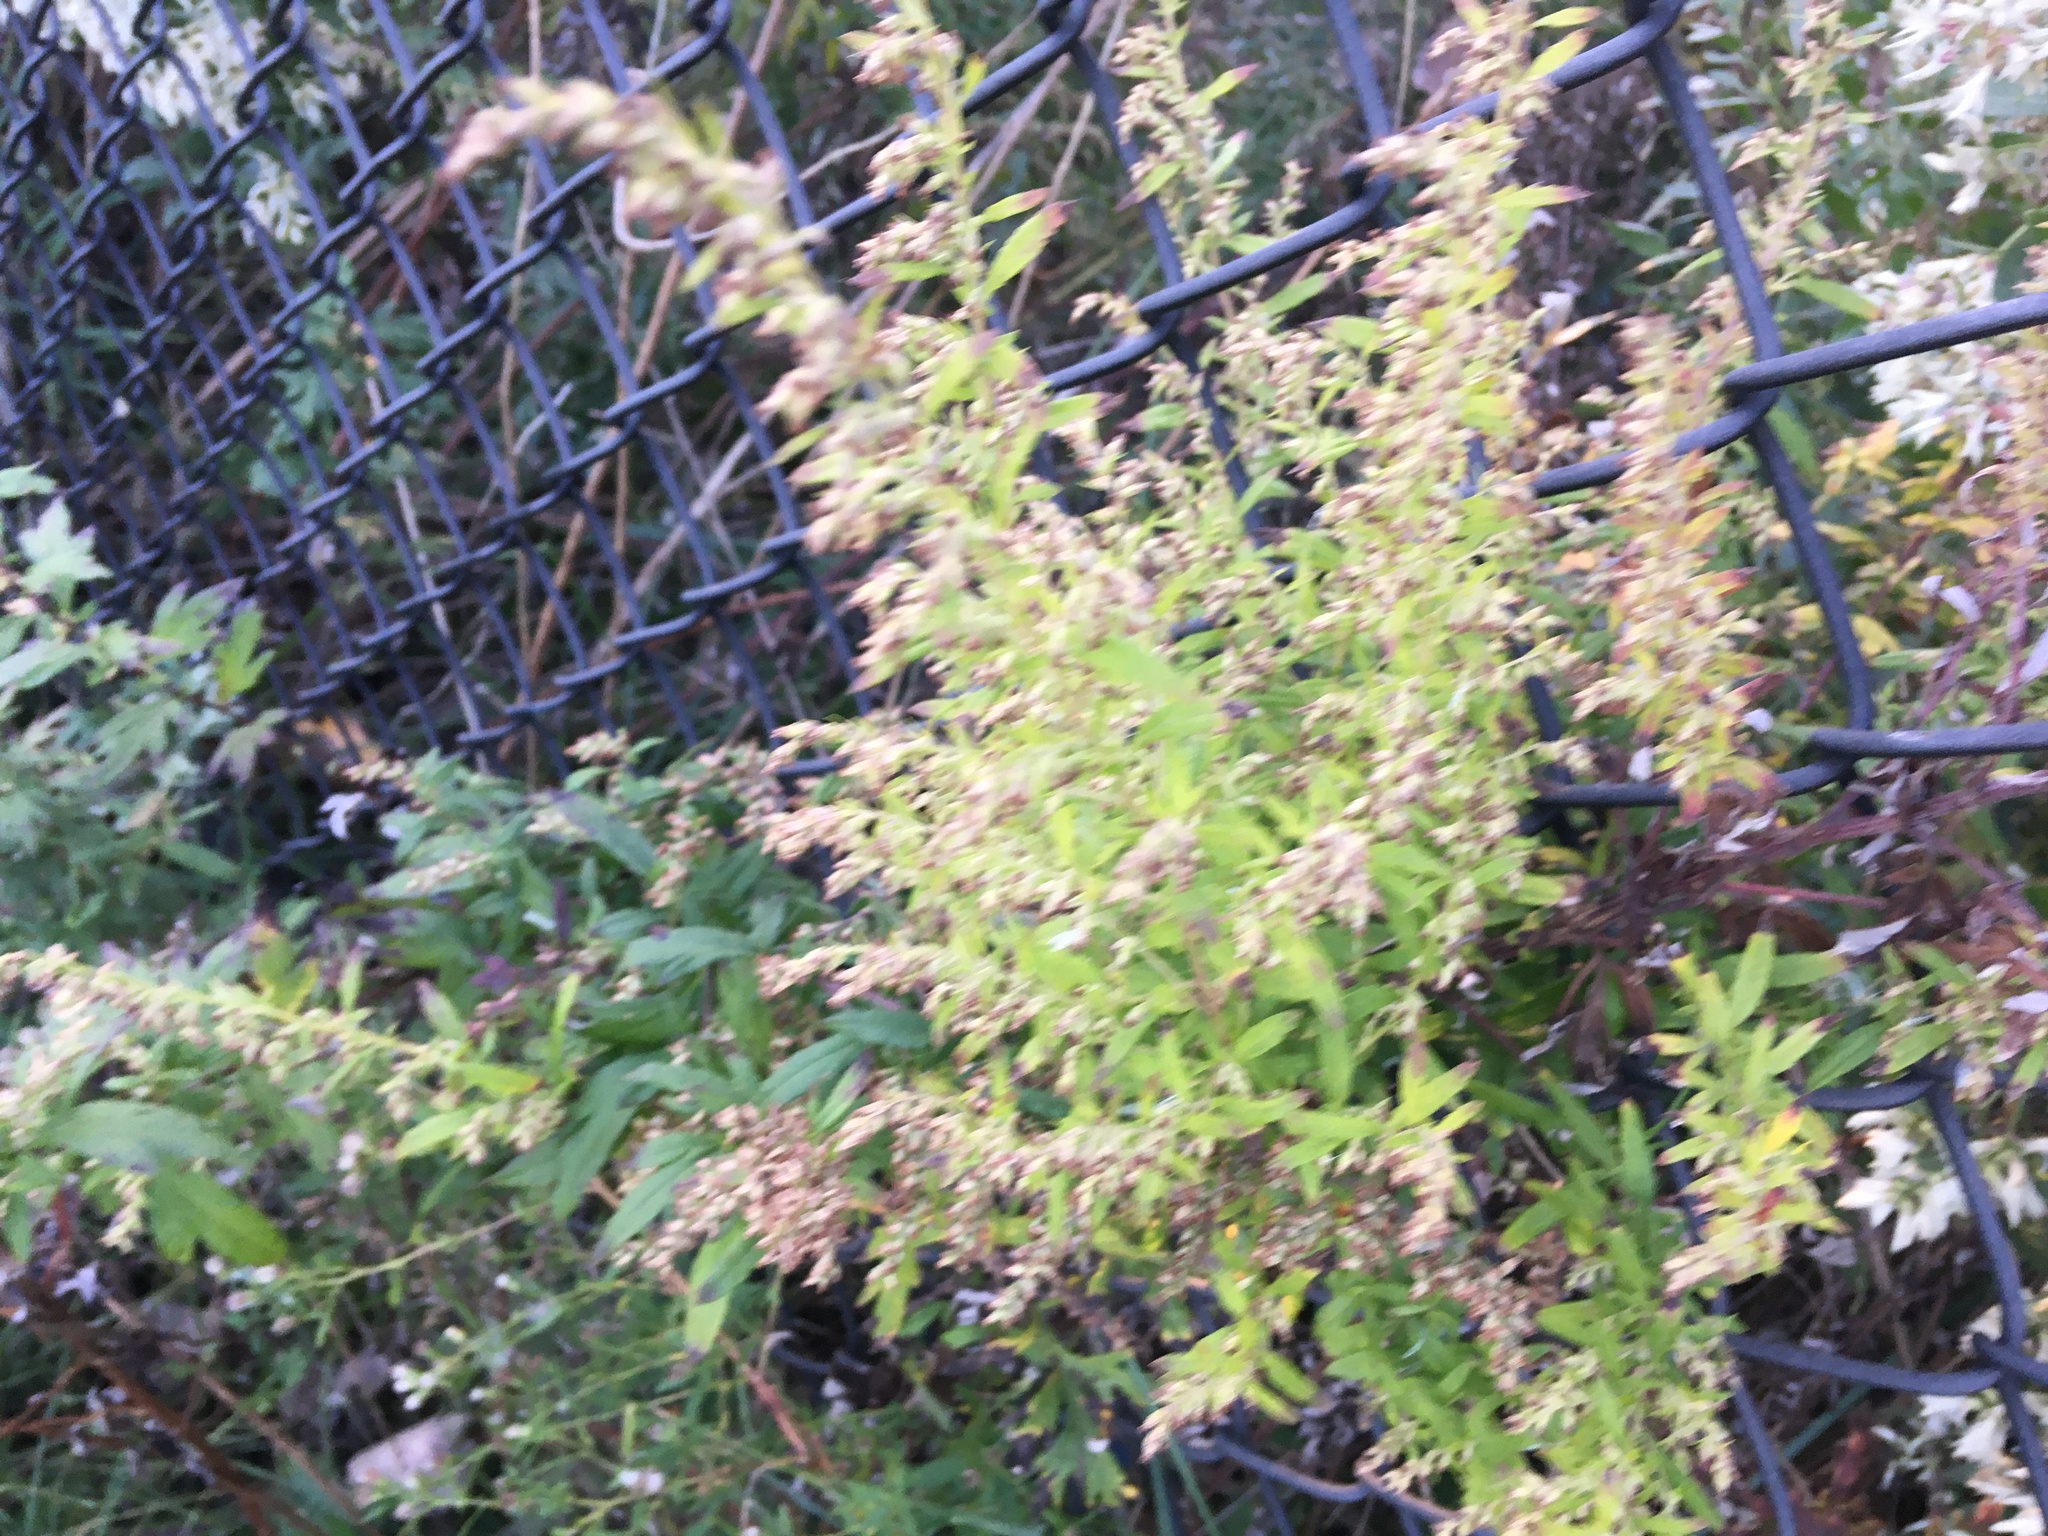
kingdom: Plantae
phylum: Tracheophyta
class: Magnoliopsida
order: Asterales
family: Asteraceae
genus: Artemisia
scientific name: Artemisia vulgaris
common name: Mugwort
